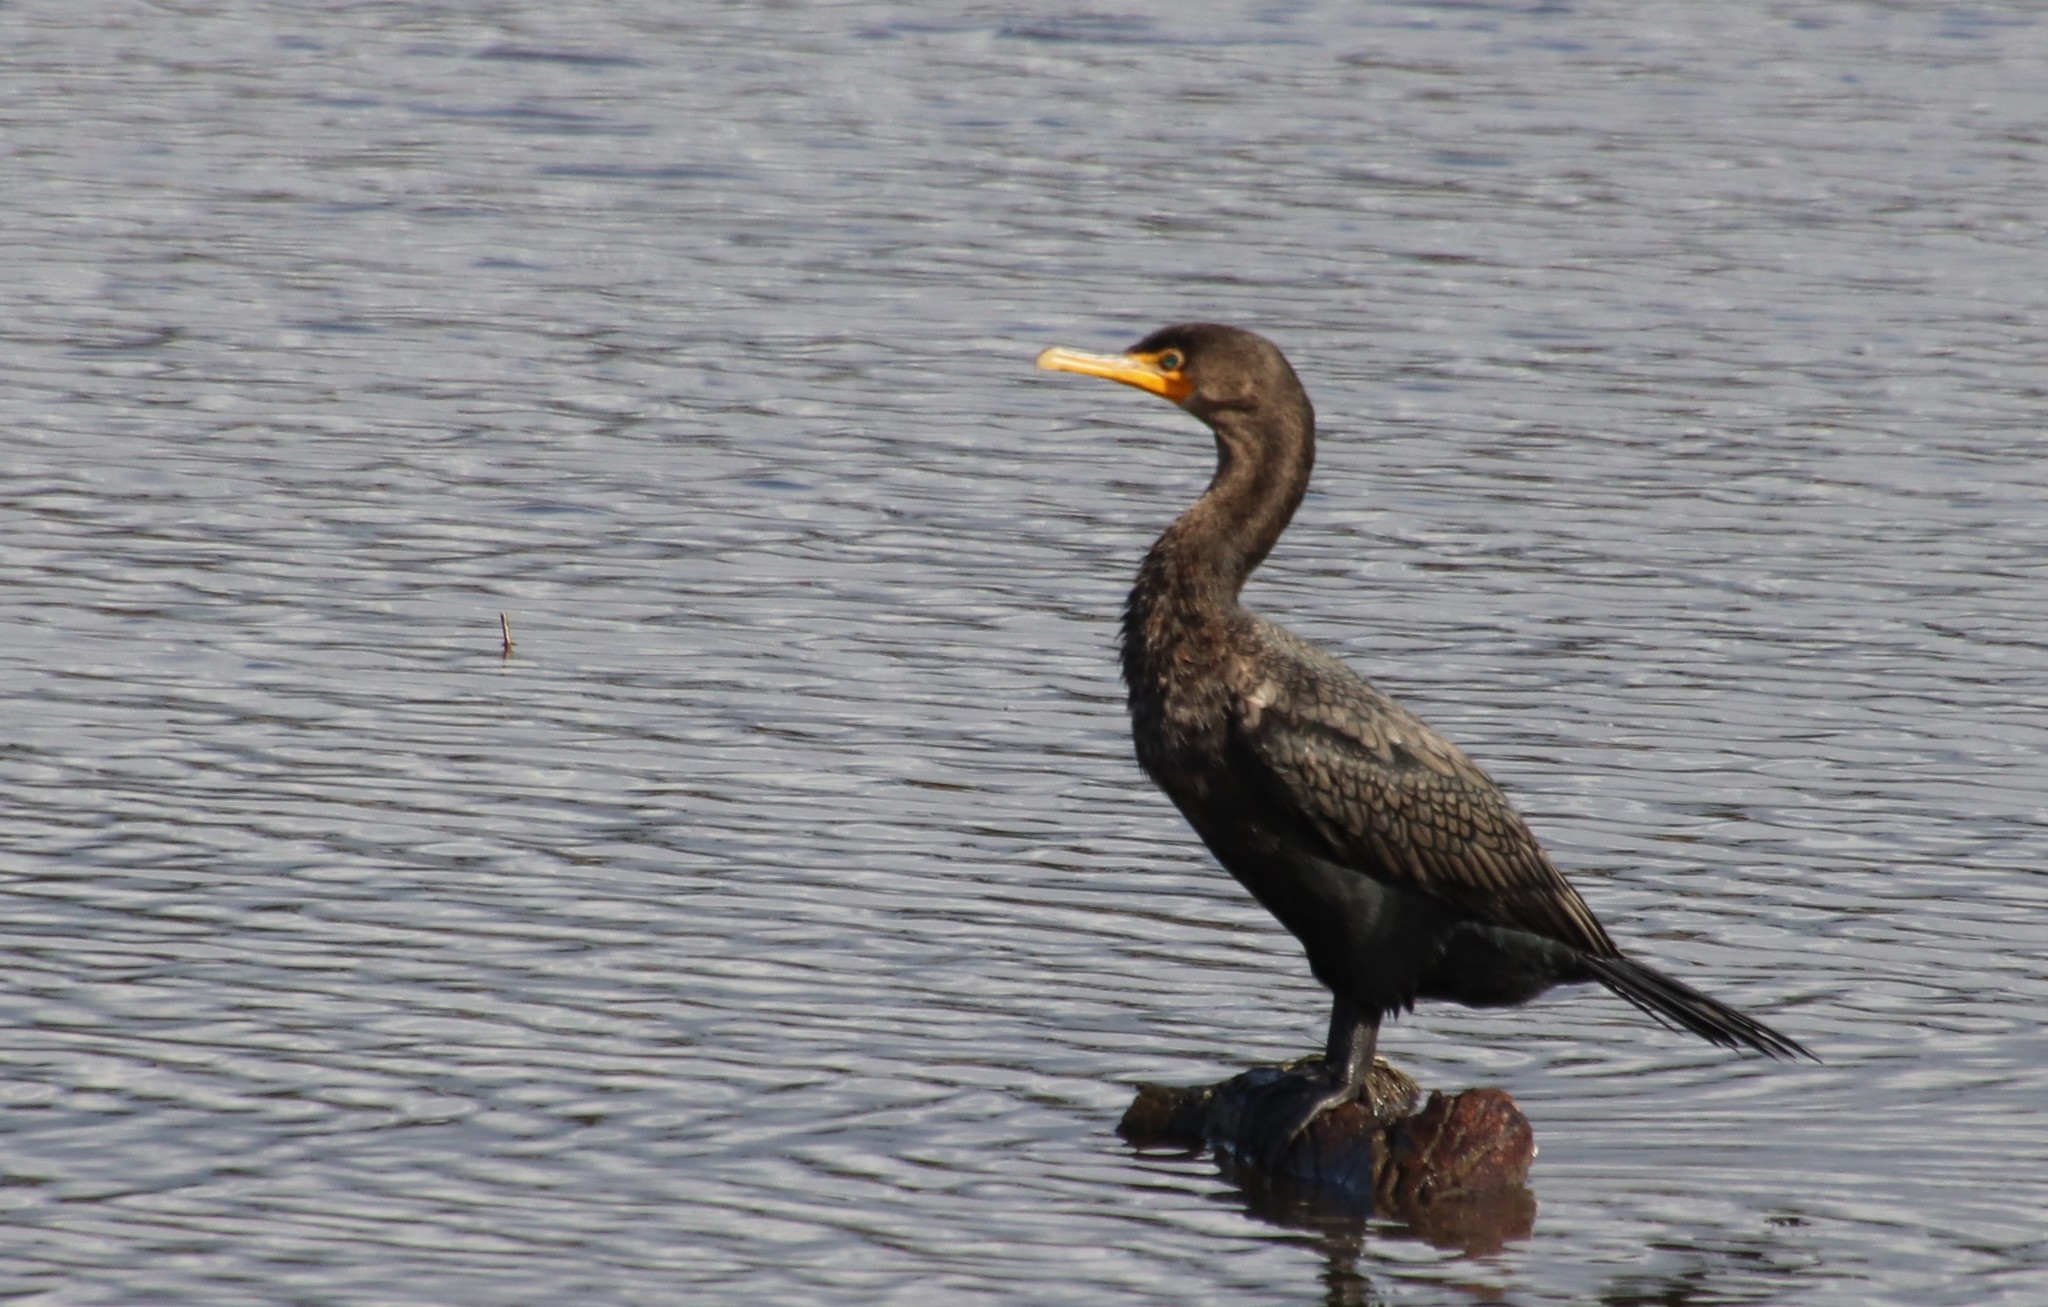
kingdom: Animalia
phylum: Chordata
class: Aves
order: Suliformes
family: Phalacrocoracidae
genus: Phalacrocorax
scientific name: Phalacrocorax auritus
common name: Double-crested cormorant
